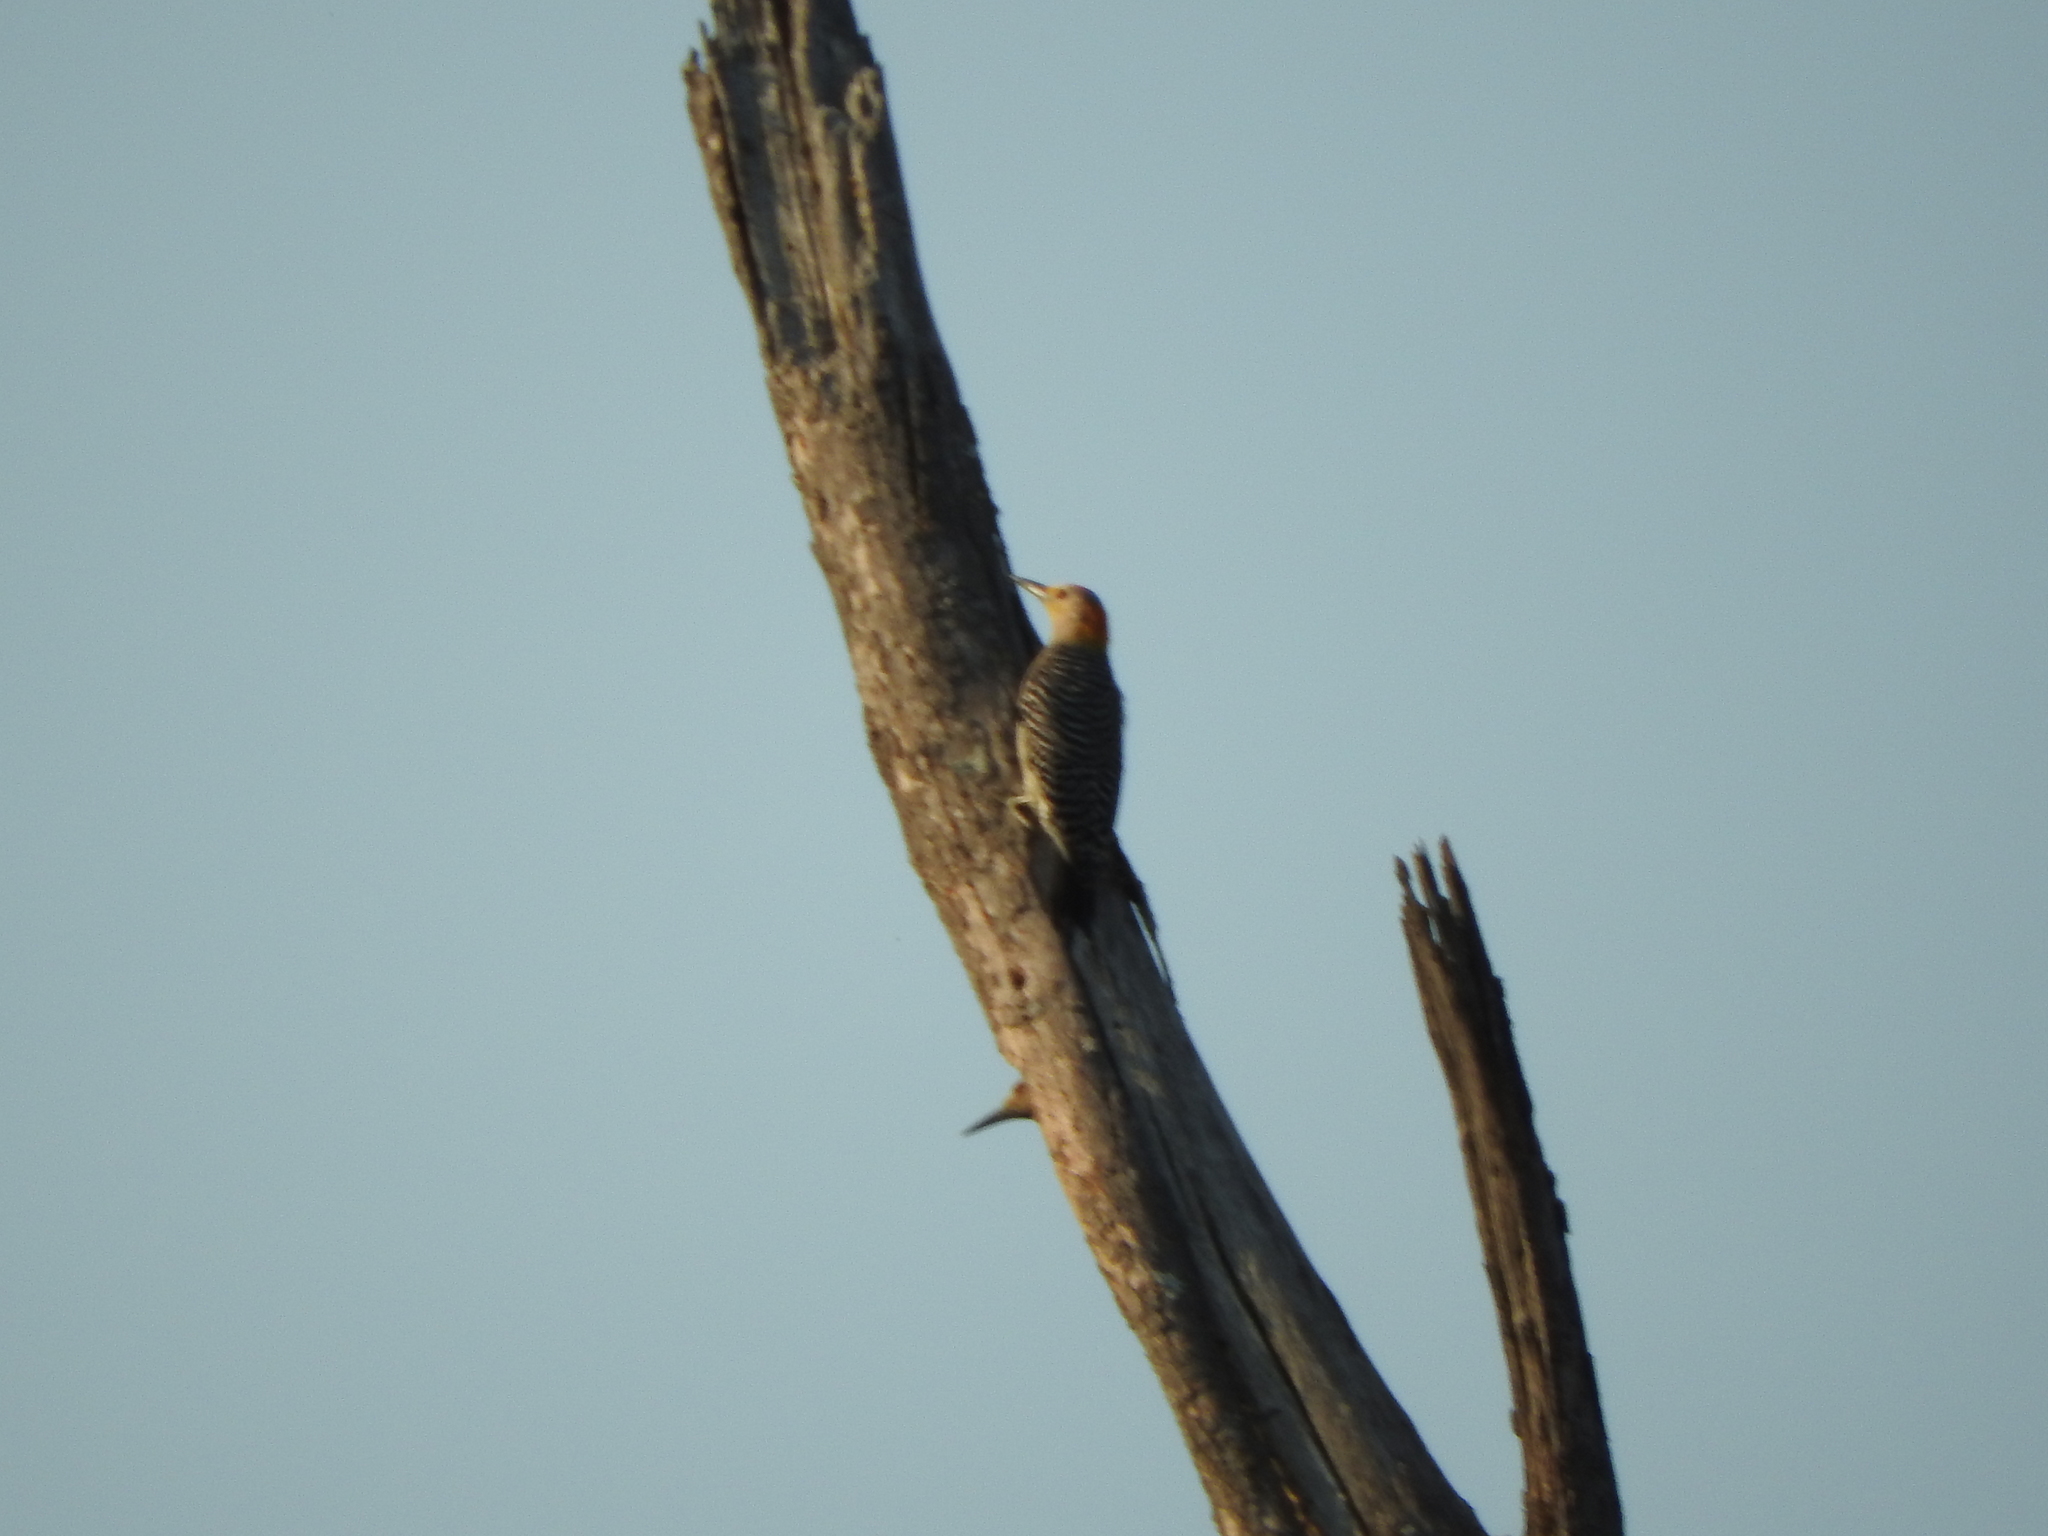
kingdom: Animalia
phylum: Chordata
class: Aves
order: Piciformes
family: Picidae
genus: Melanerpes
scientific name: Melanerpes aurifrons
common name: Golden-fronted woodpecker
